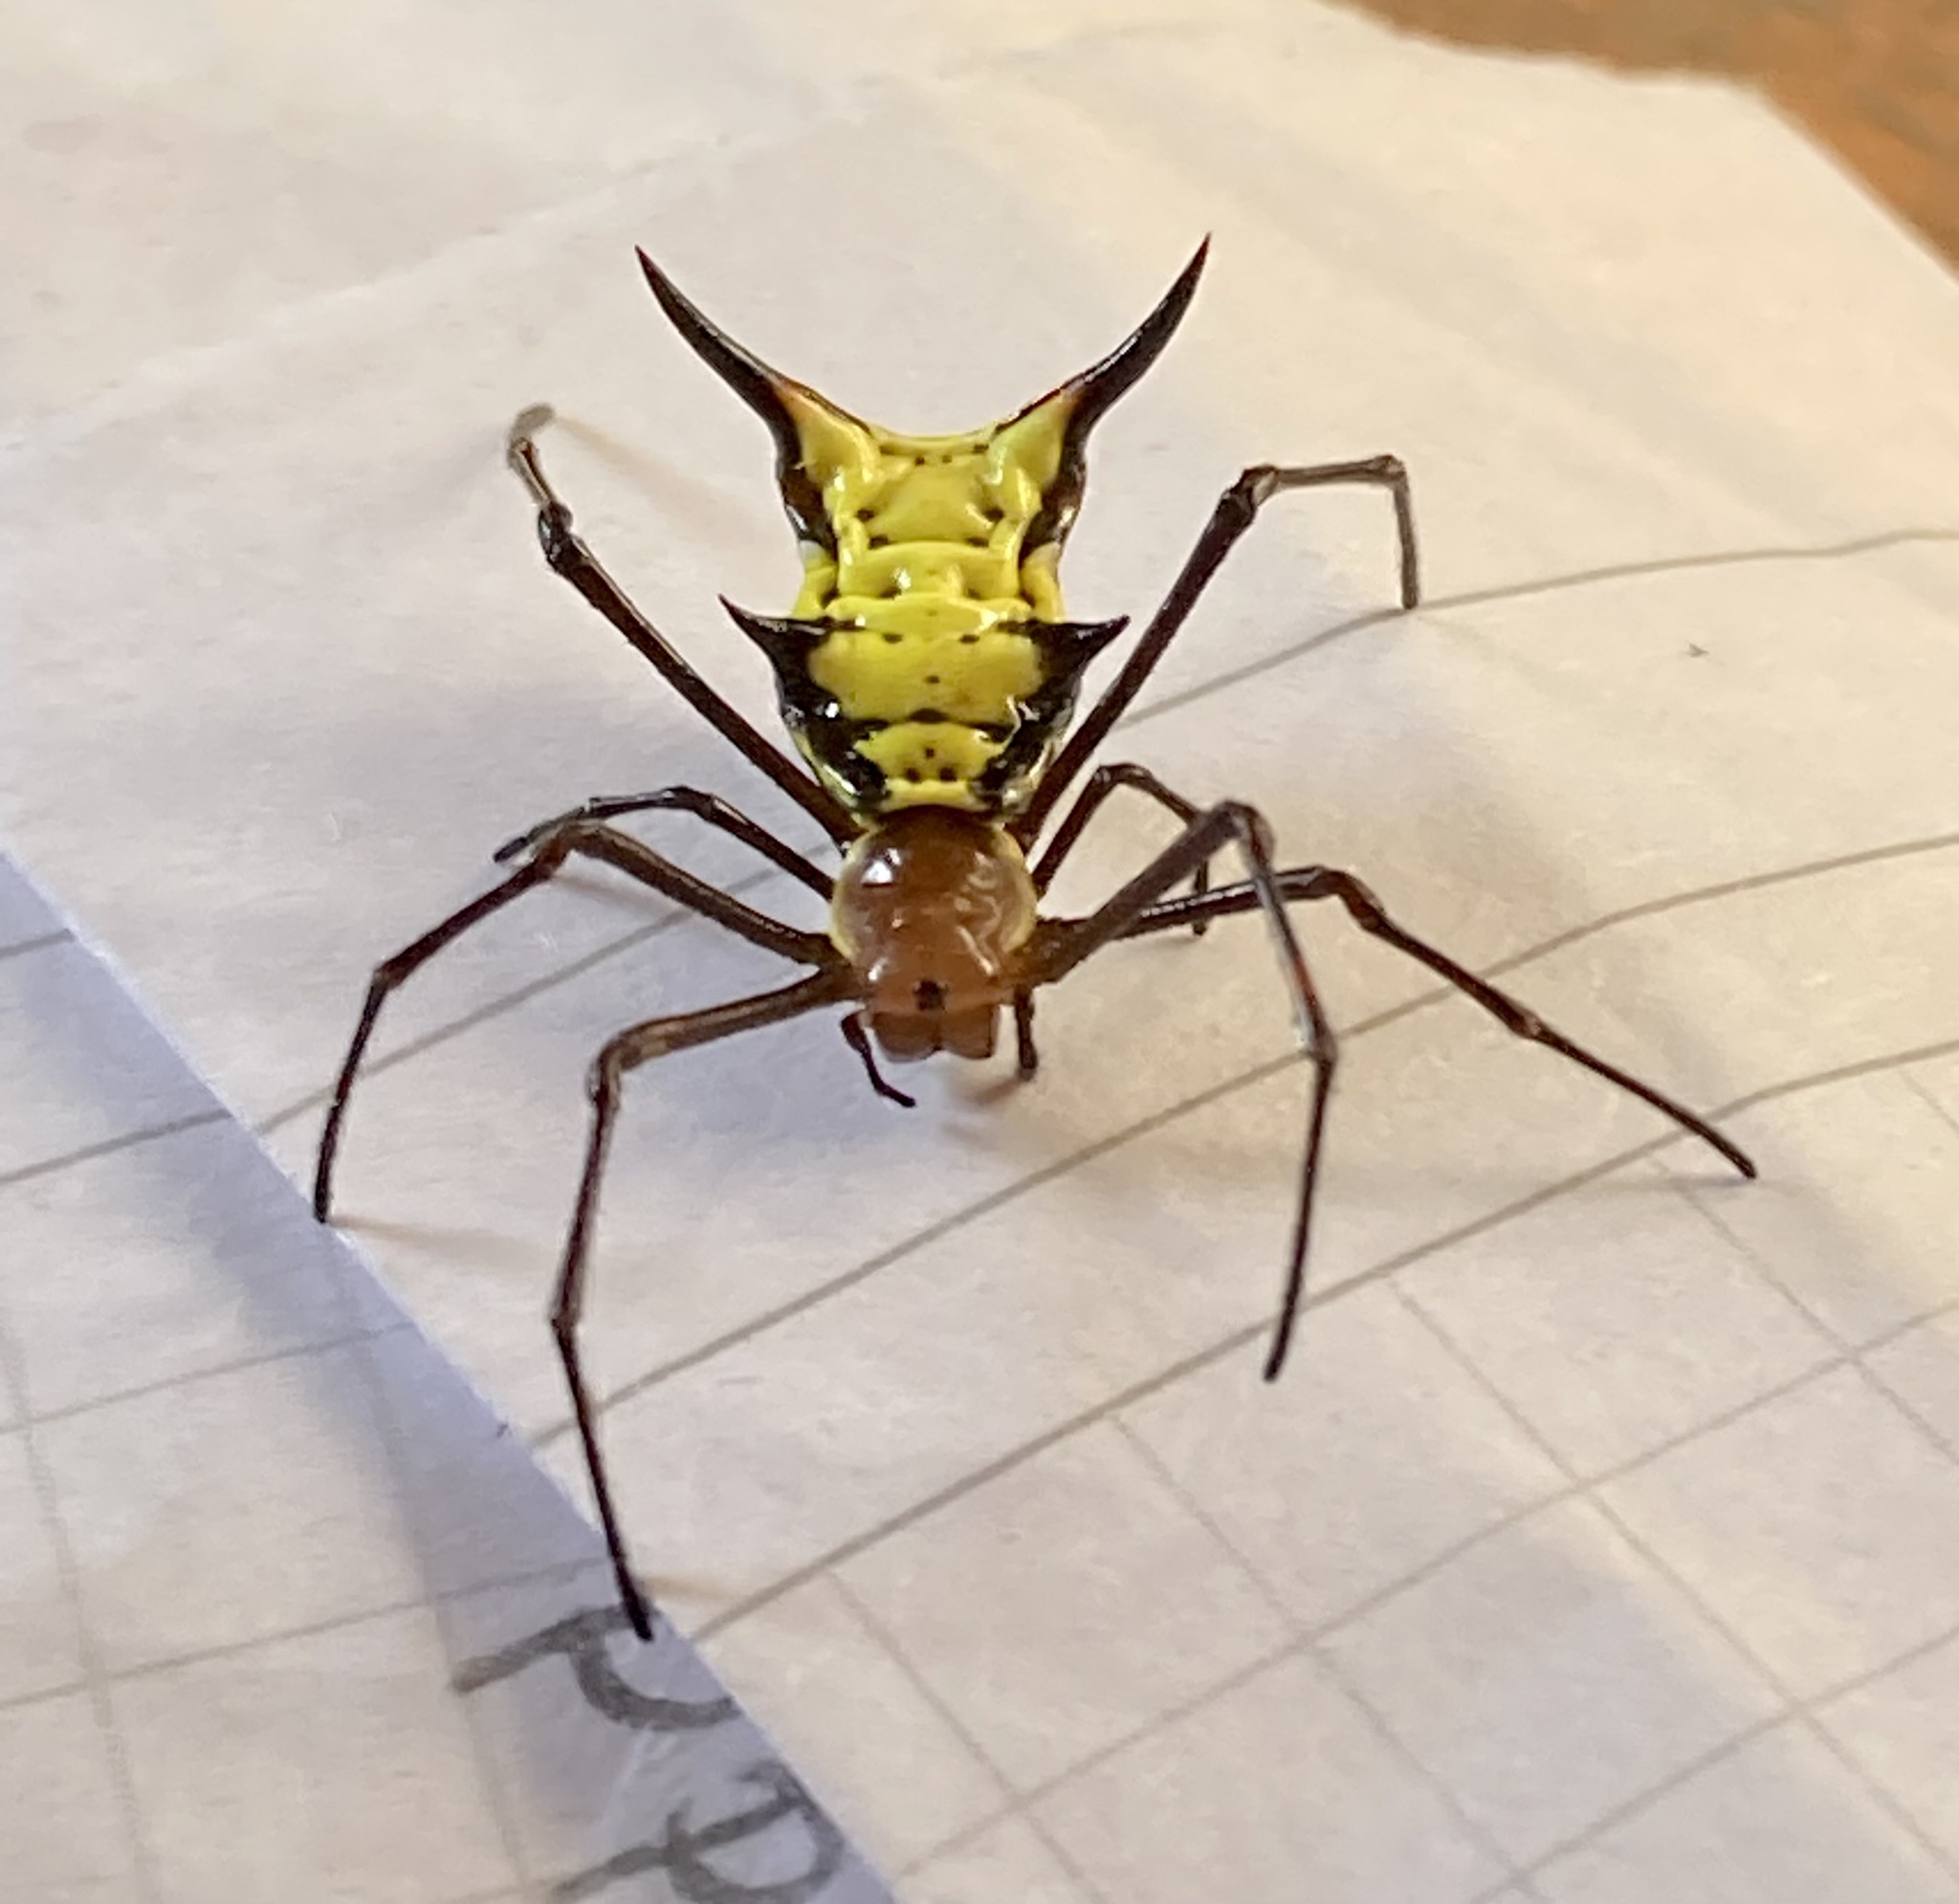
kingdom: Animalia
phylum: Arthropoda
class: Arachnida
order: Araneae
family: Araneidae
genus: Micrathena
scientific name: Micrathena miles
